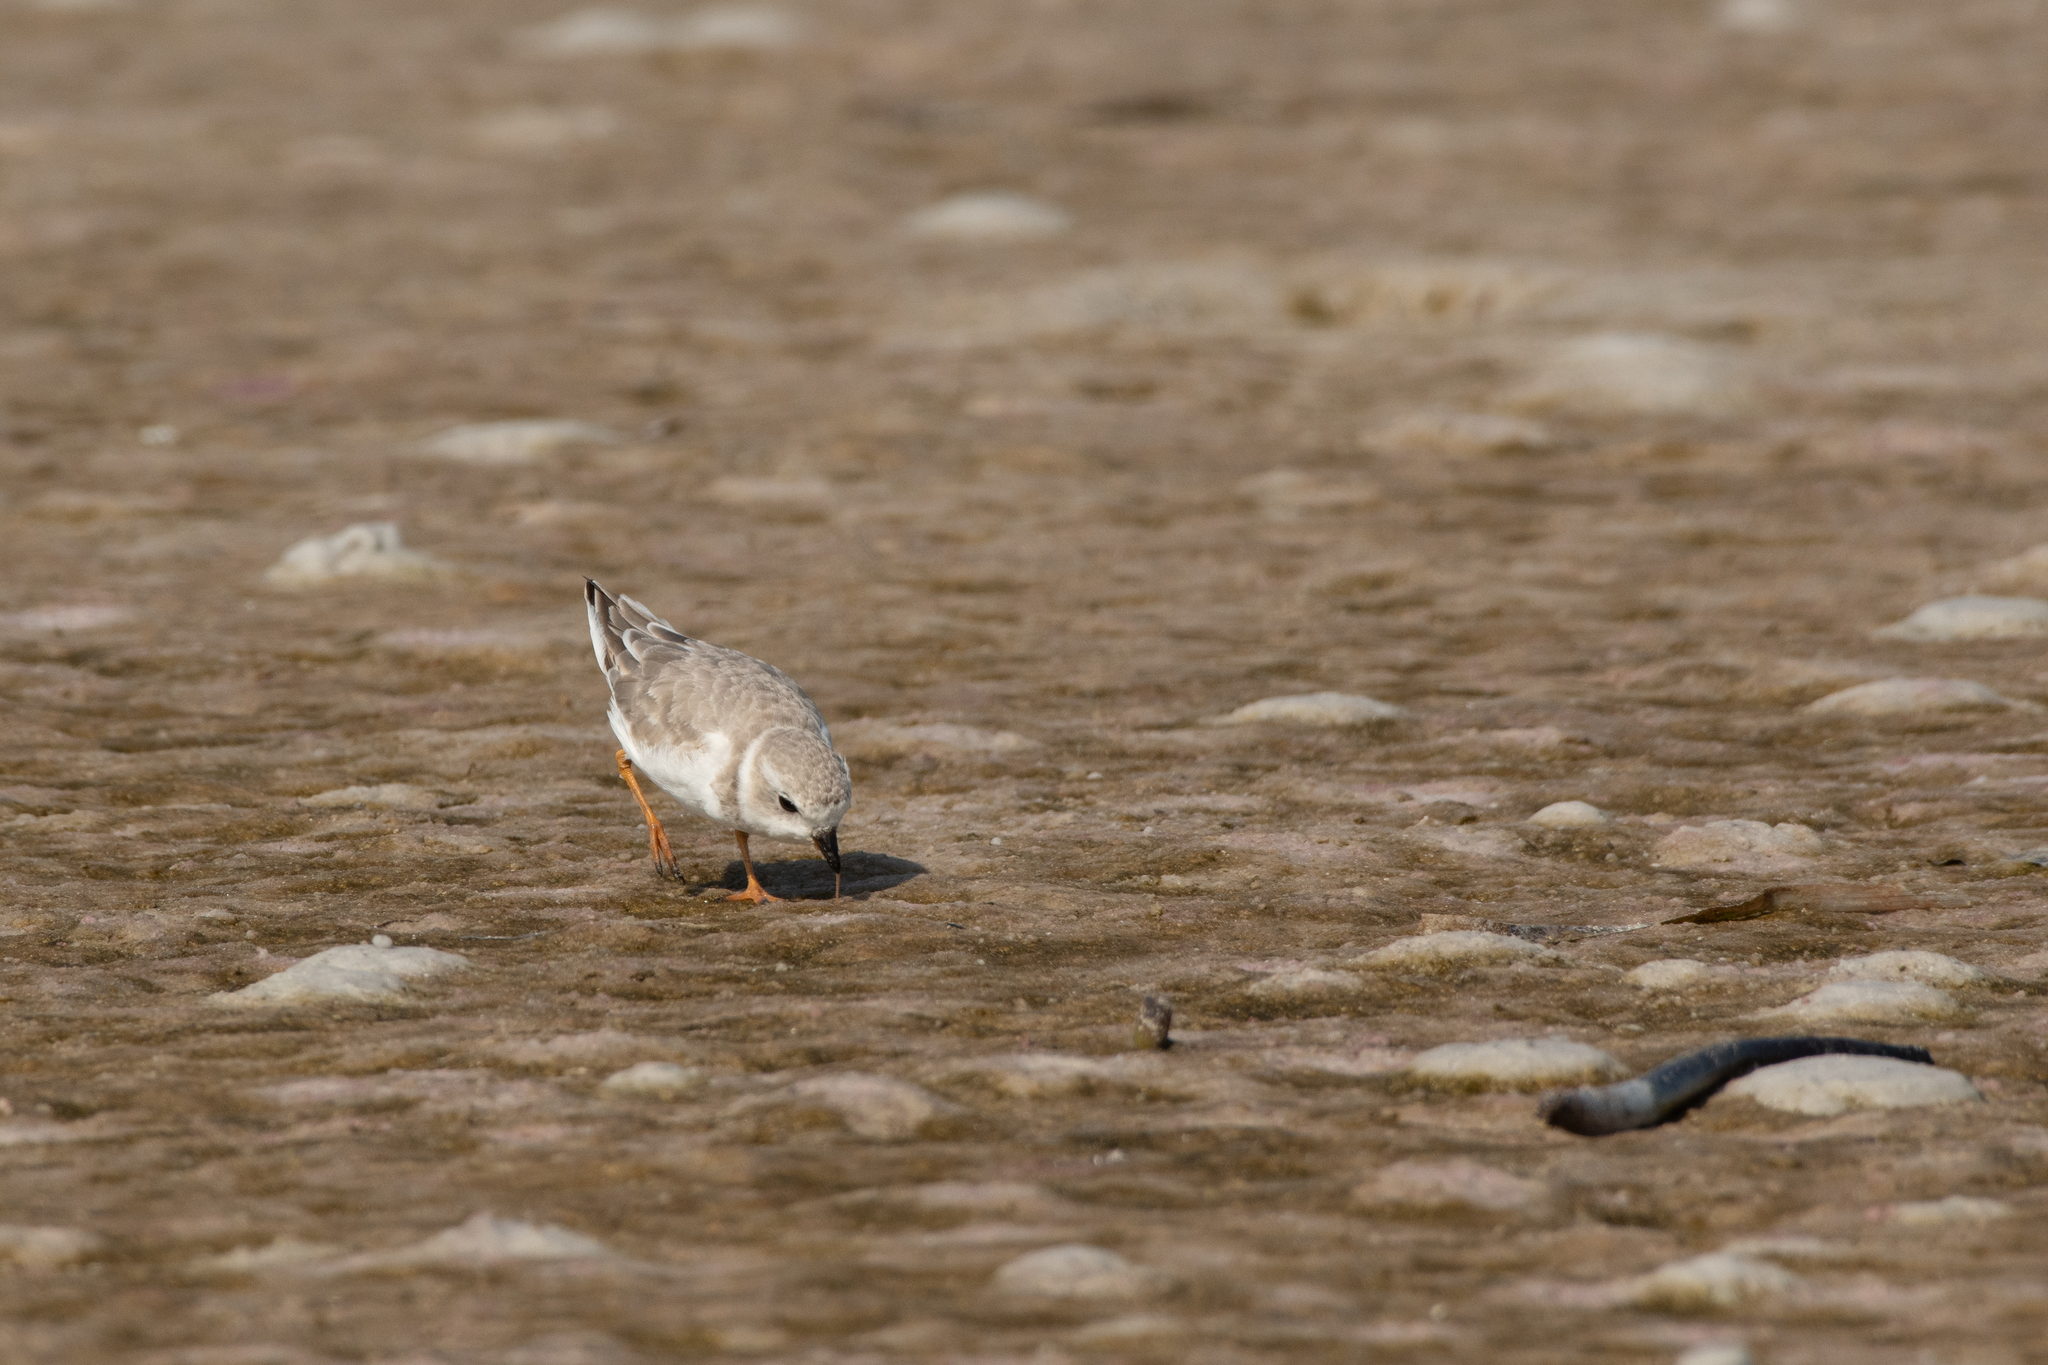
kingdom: Animalia
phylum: Chordata
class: Aves
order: Charadriiformes
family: Charadriidae
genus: Charadrius
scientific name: Charadrius melodus
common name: Piping plover
